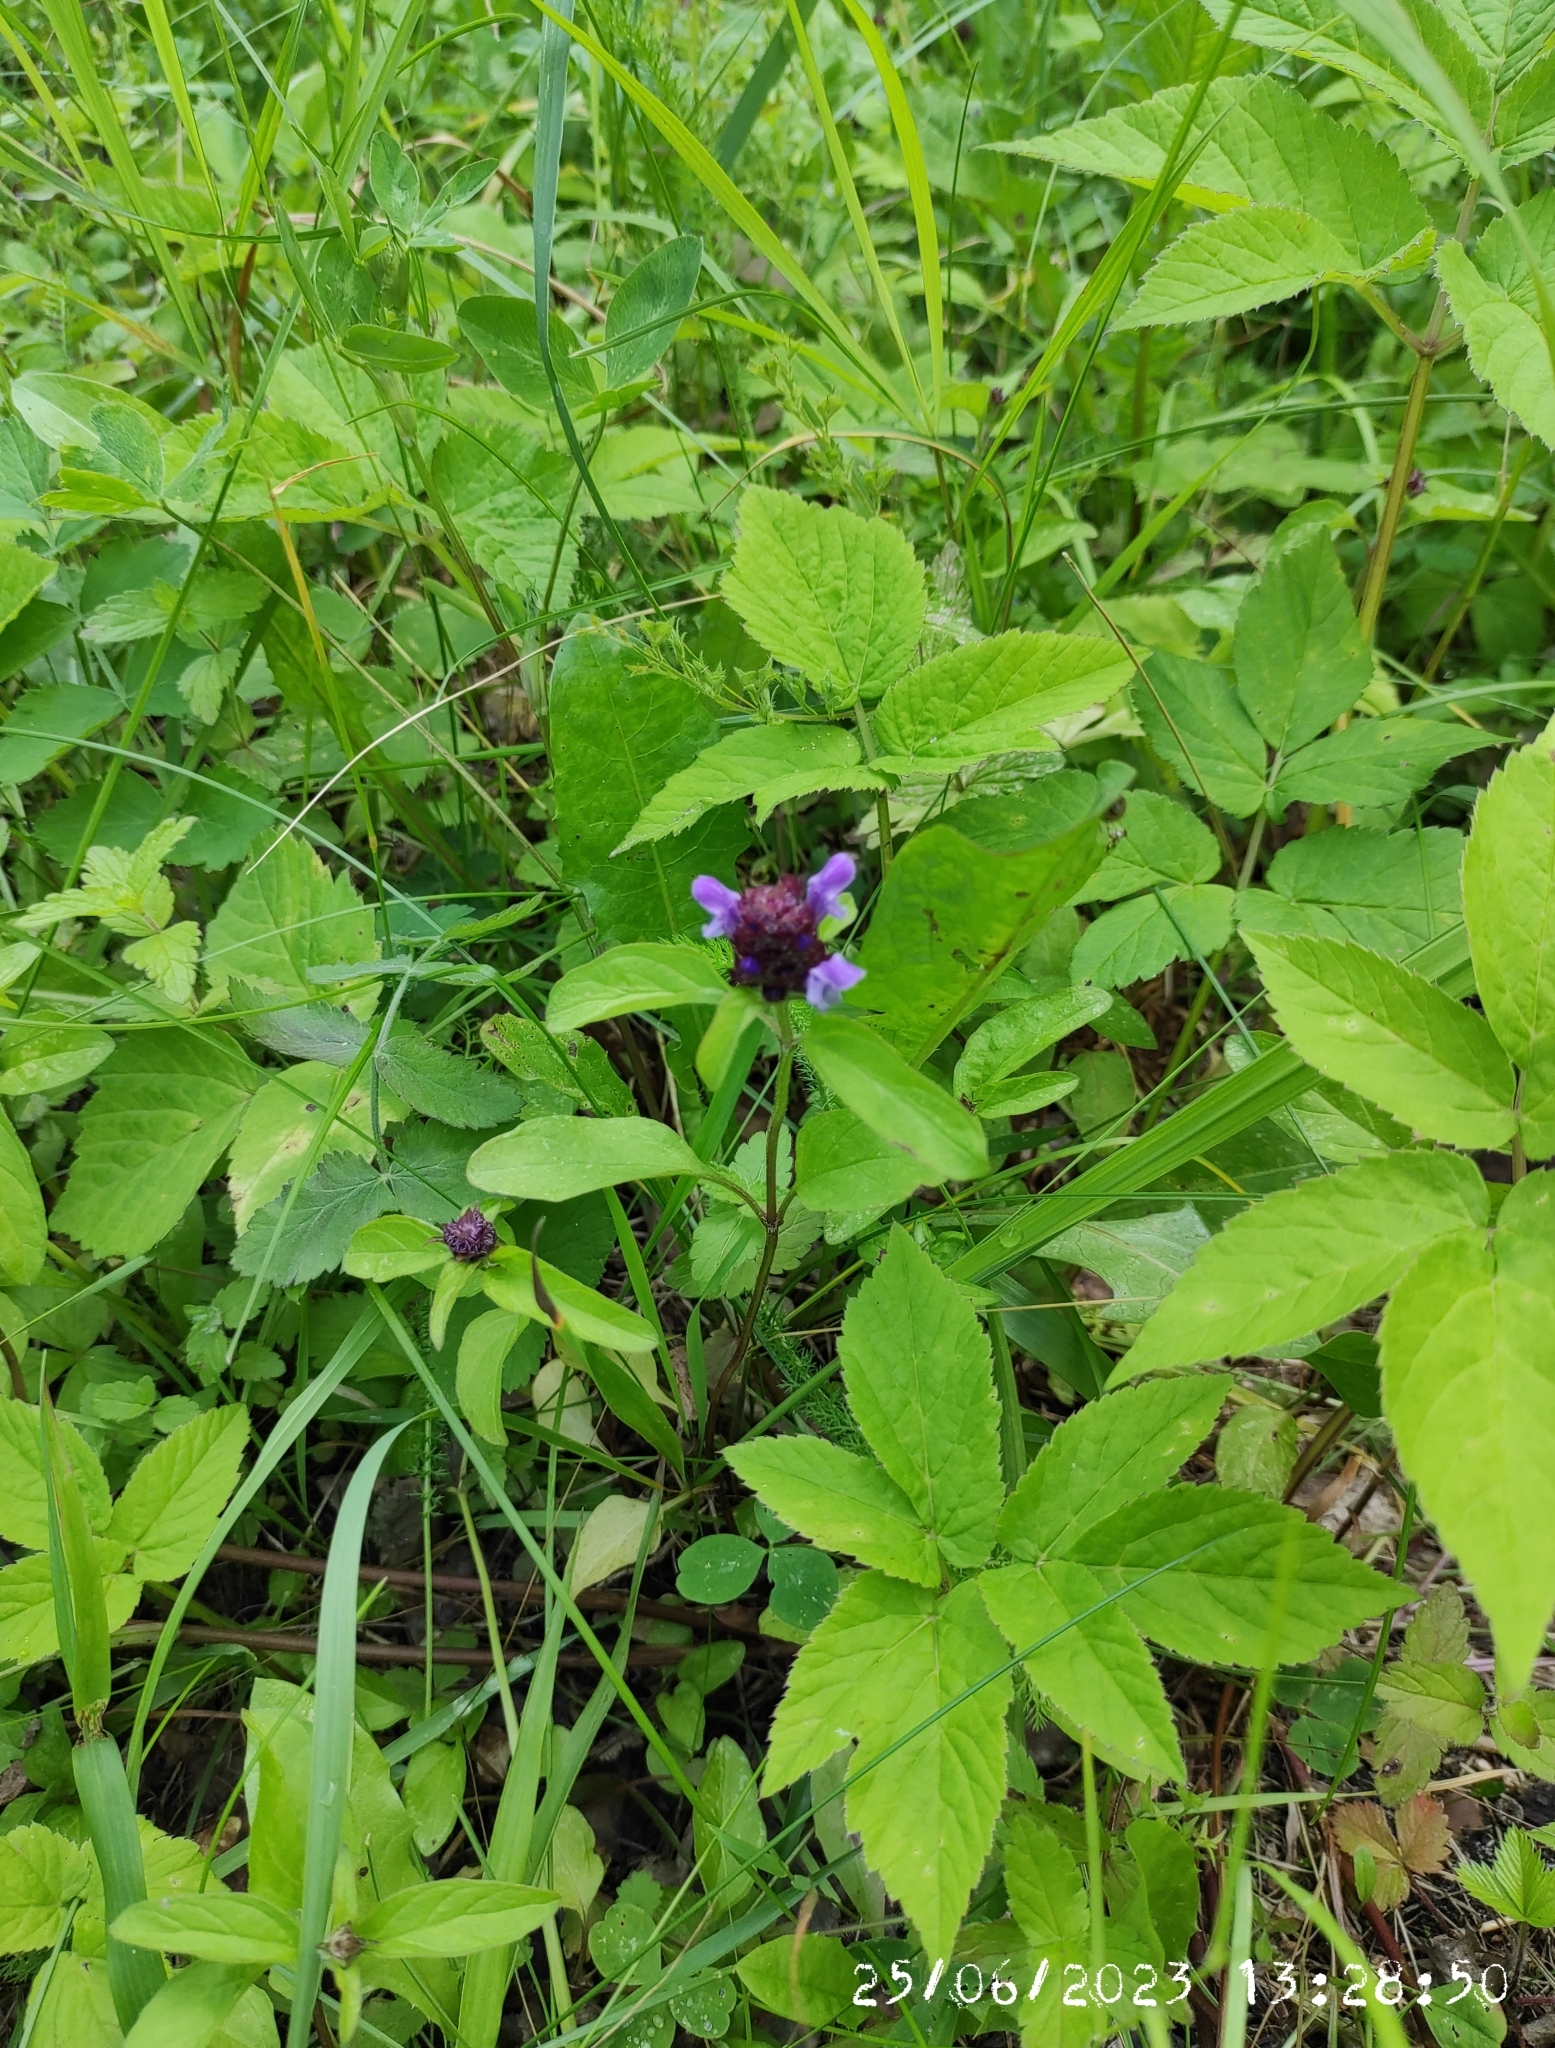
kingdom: Plantae
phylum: Tracheophyta
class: Magnoliopsida
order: Lamiales
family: Lamiaceae
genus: Prunella
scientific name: Prunella vulgaris
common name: Heal-all
